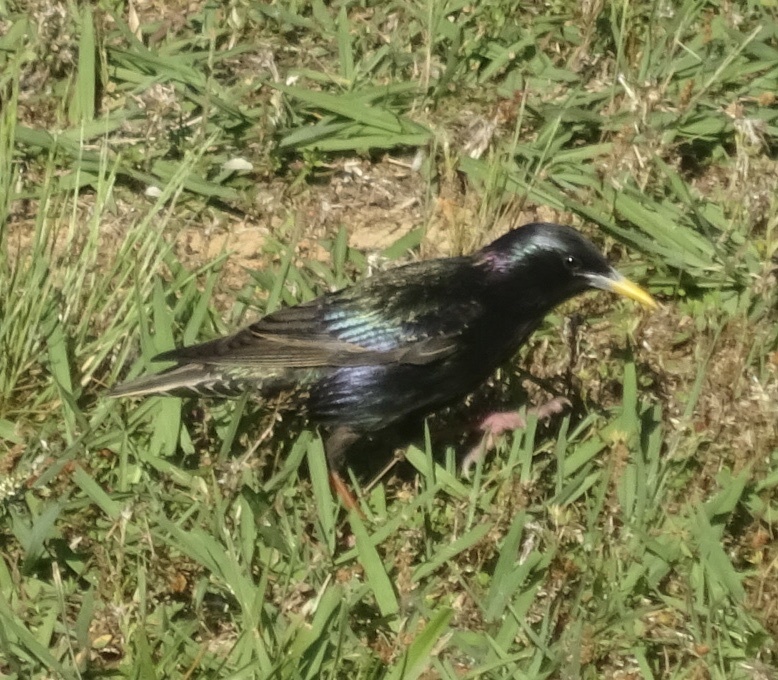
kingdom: Animalia
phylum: Chordata
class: Aves
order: Passeriformes
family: Sturnidae
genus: Sturnus
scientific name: Sturnus vulgaris
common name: Common starling
